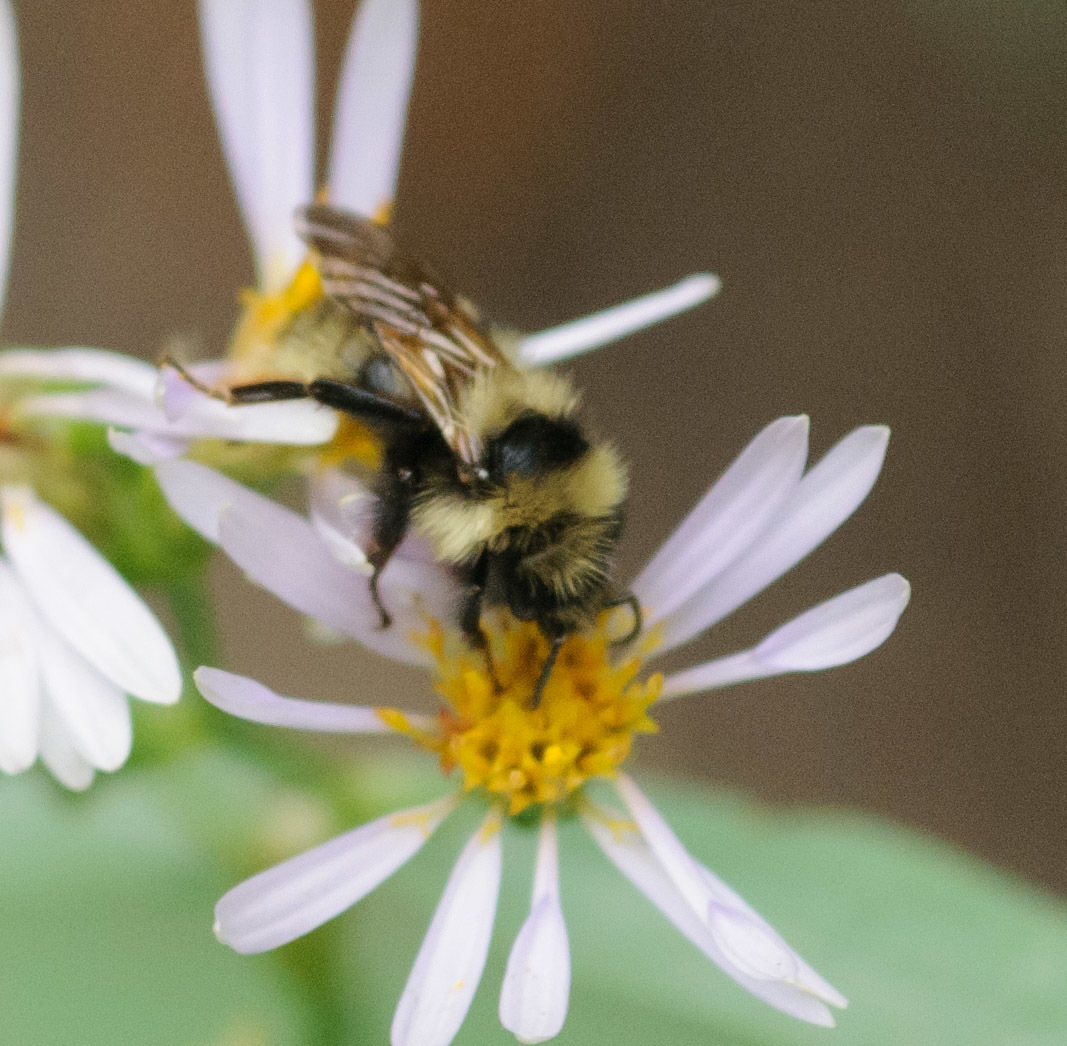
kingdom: Animalia
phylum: Arthropoda
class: Insecta
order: Hymenoptera
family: Apidae
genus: Bombus
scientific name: Bombus insularis
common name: Indiscriminate cuckoo bumble bee
